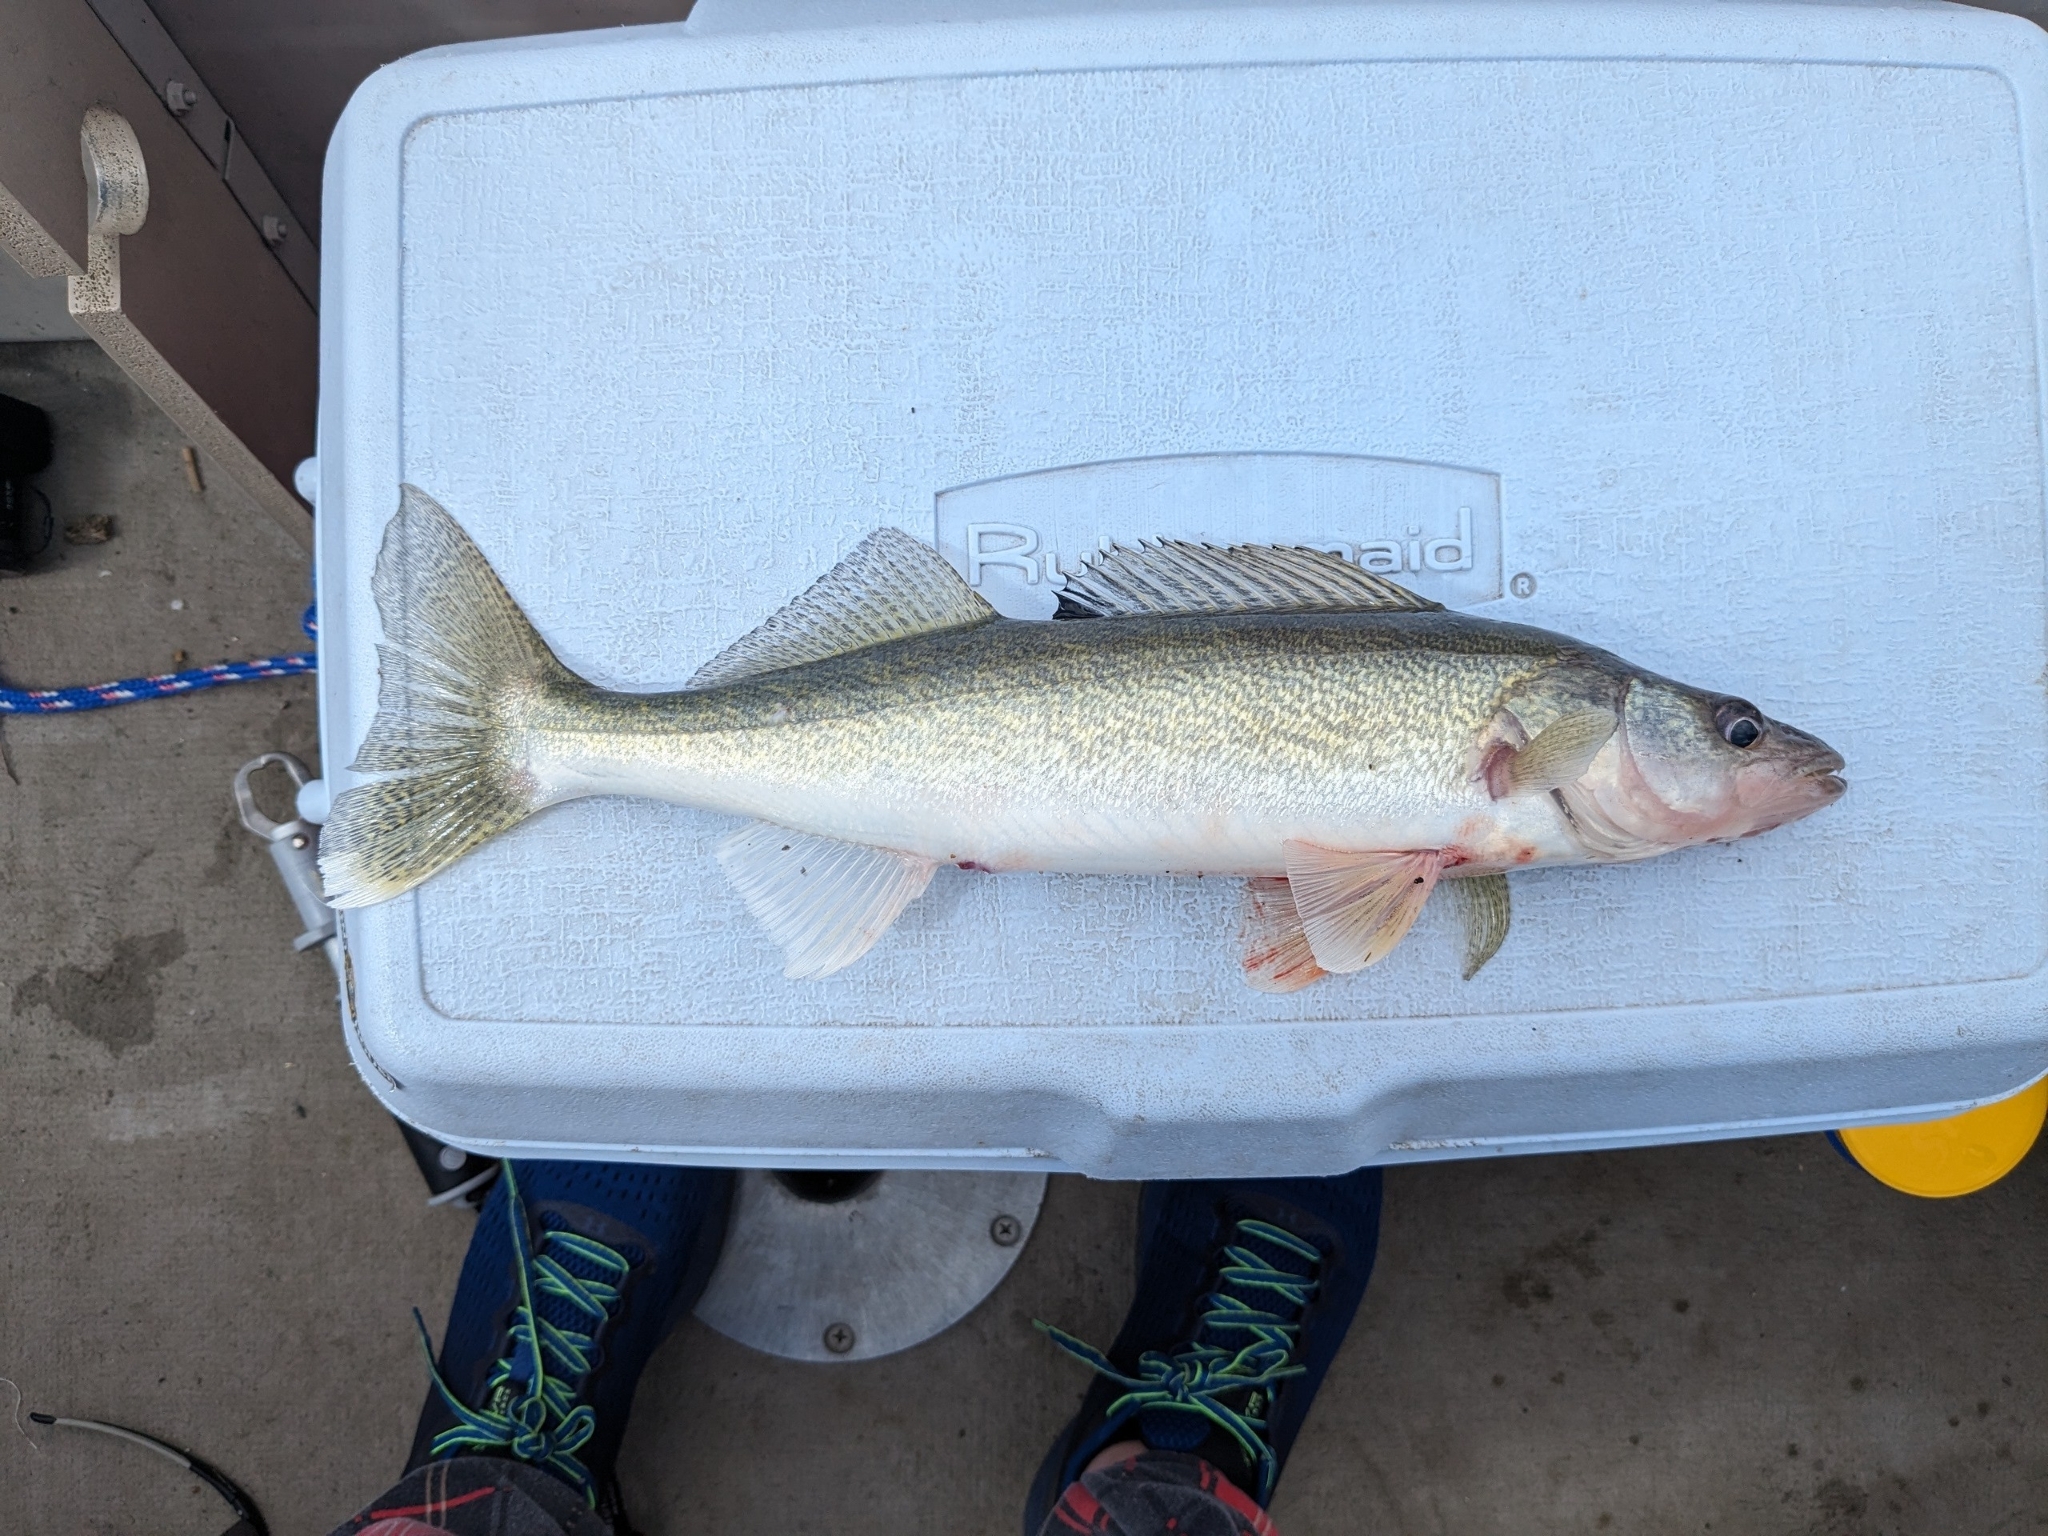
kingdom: Animalia
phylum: Chordata
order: Perciformes
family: Percidae
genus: Sander
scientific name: Sander vitreus
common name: Walleye
